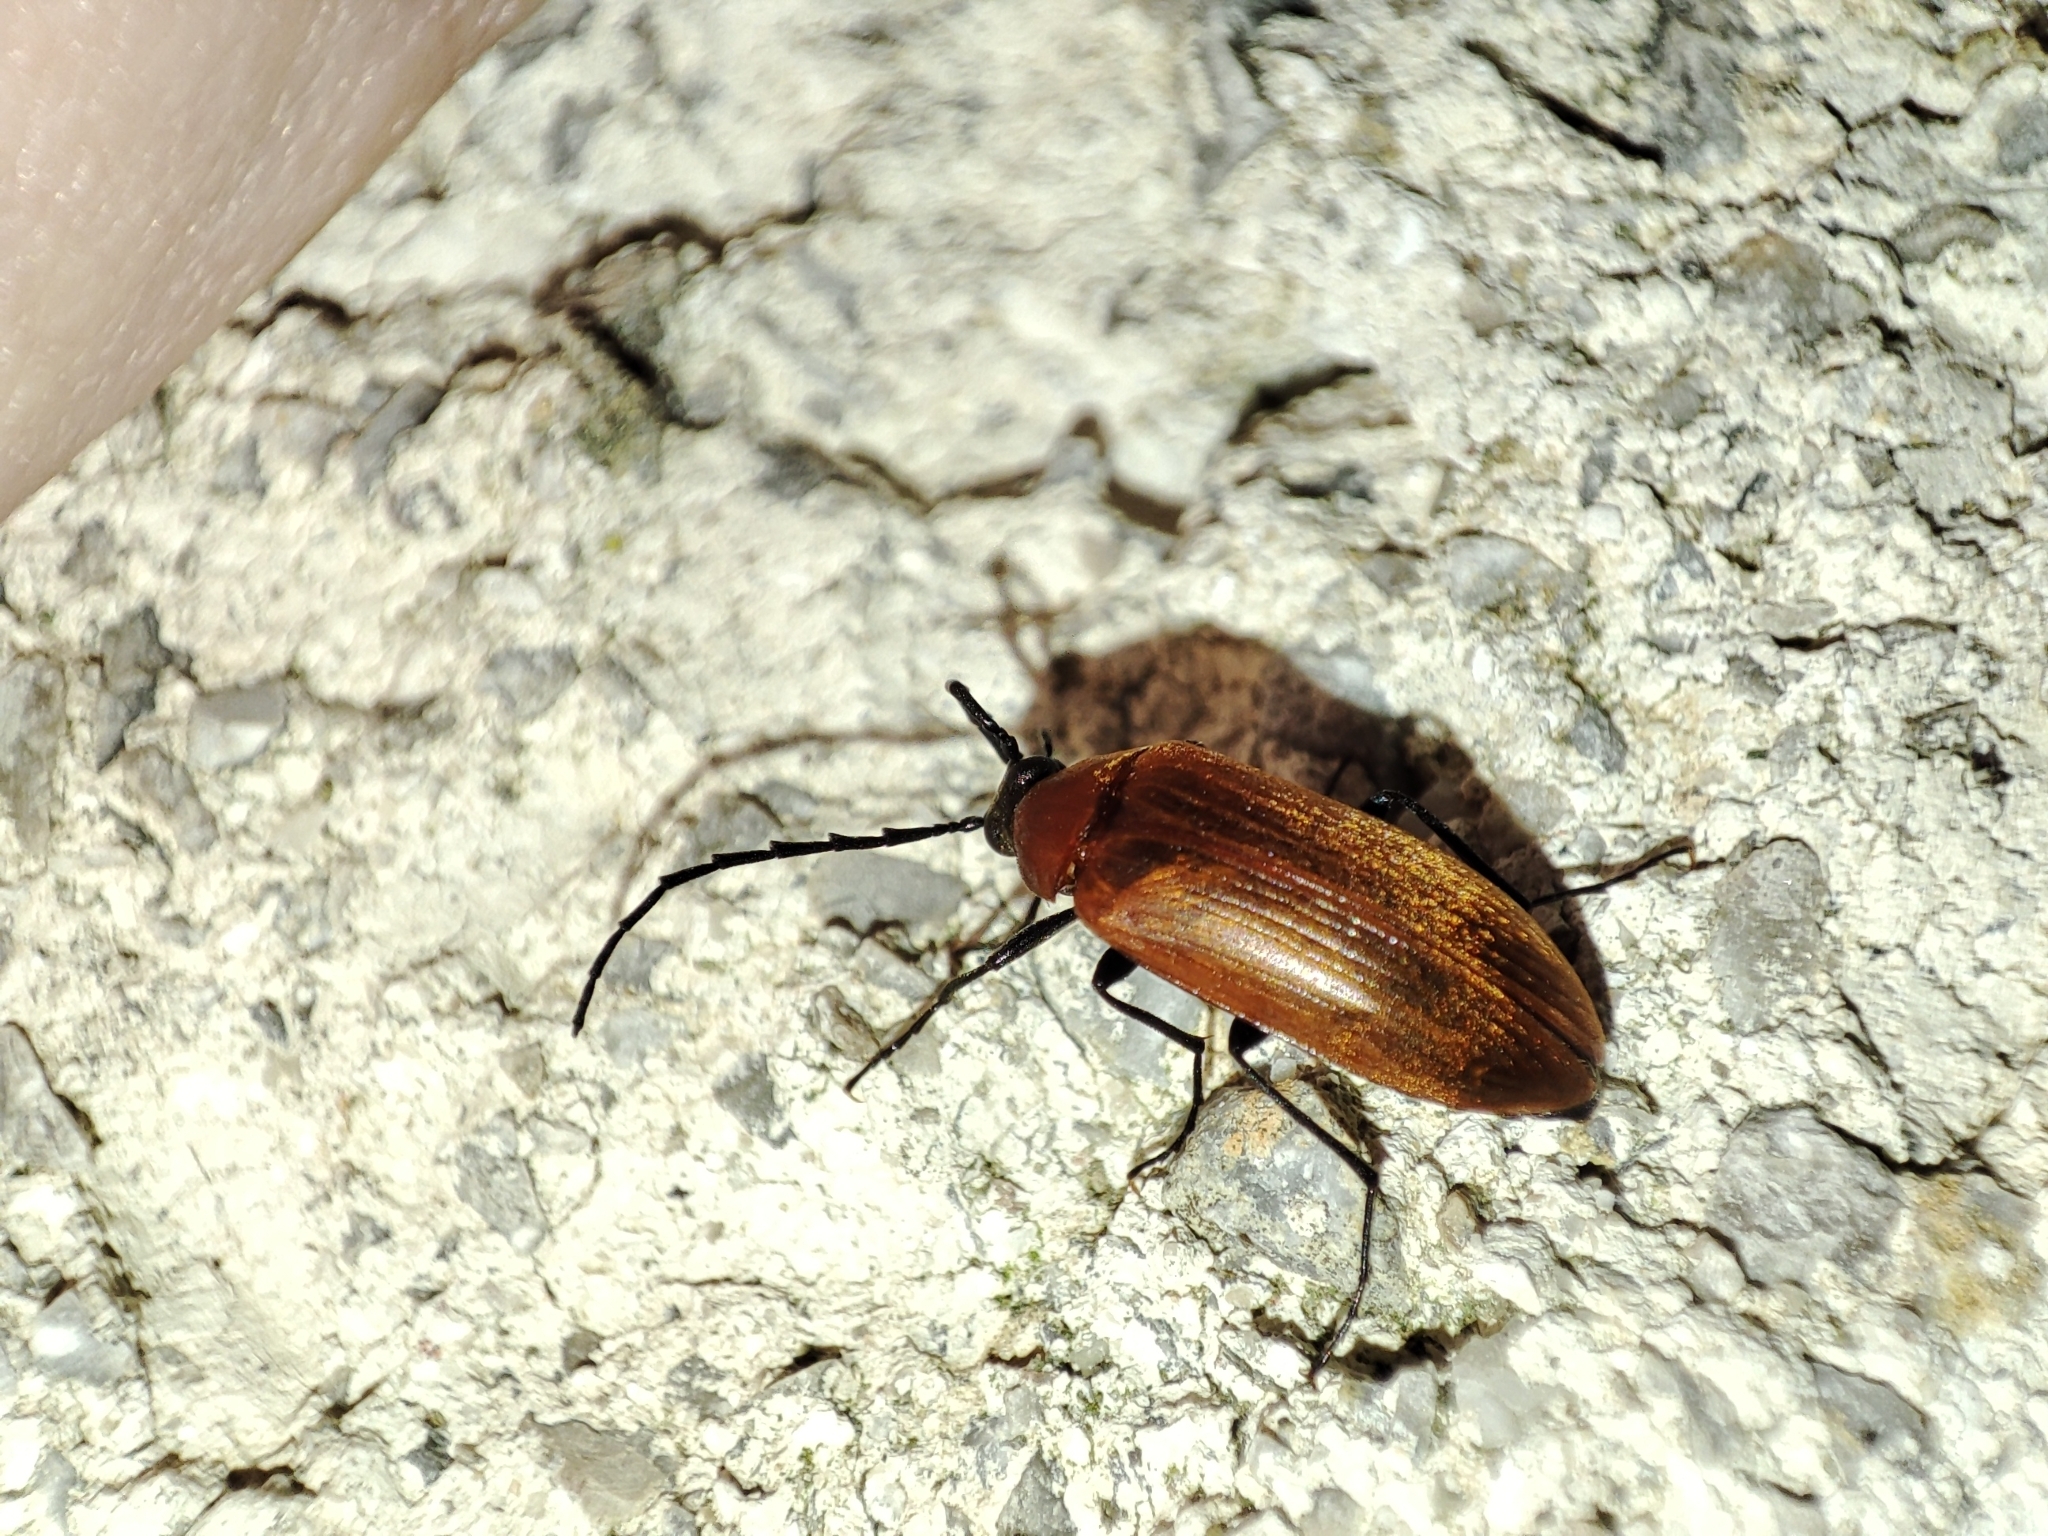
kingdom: Animalia
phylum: Arthropoda
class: Insecta
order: Coleoptera
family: Tenebrionidae
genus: Pseudocistela
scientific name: Pseudocistela ceramboides
